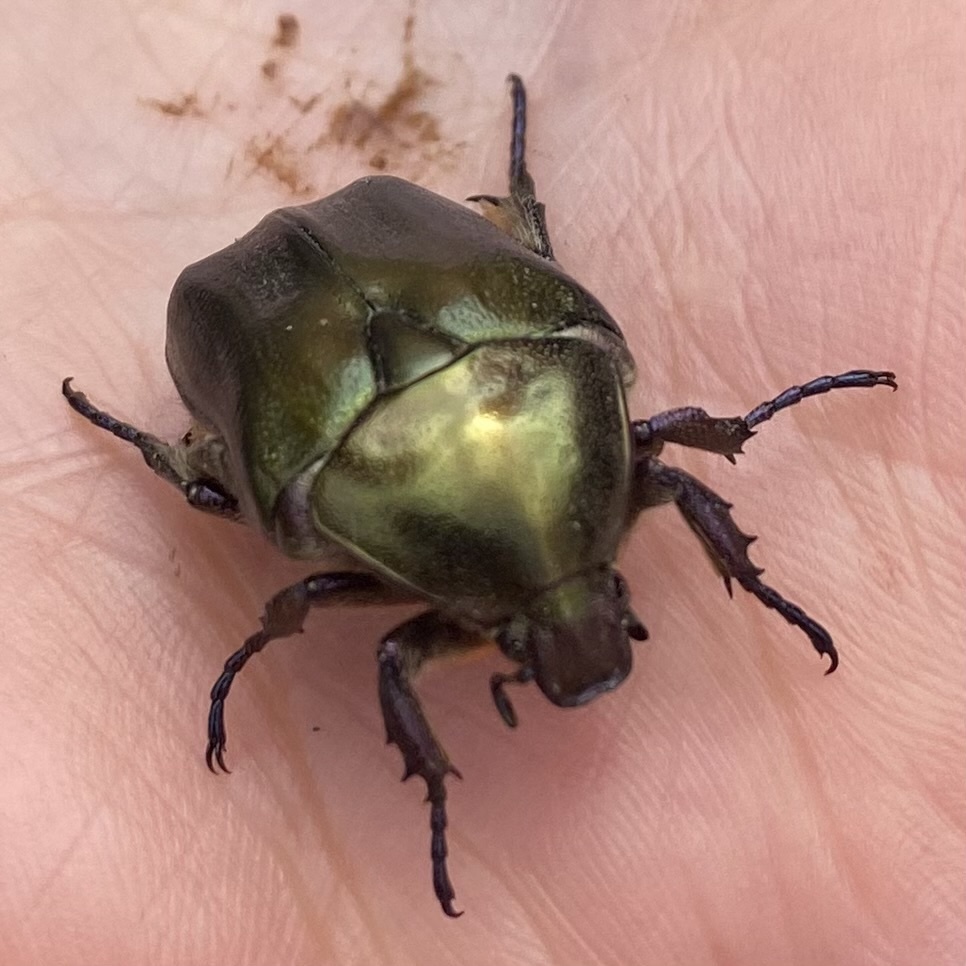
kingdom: Animalia
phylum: Arthropoda
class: Insecta
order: Coleoptera
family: Scarabaeidae
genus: Protaetia
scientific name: Protaetia cuprea
